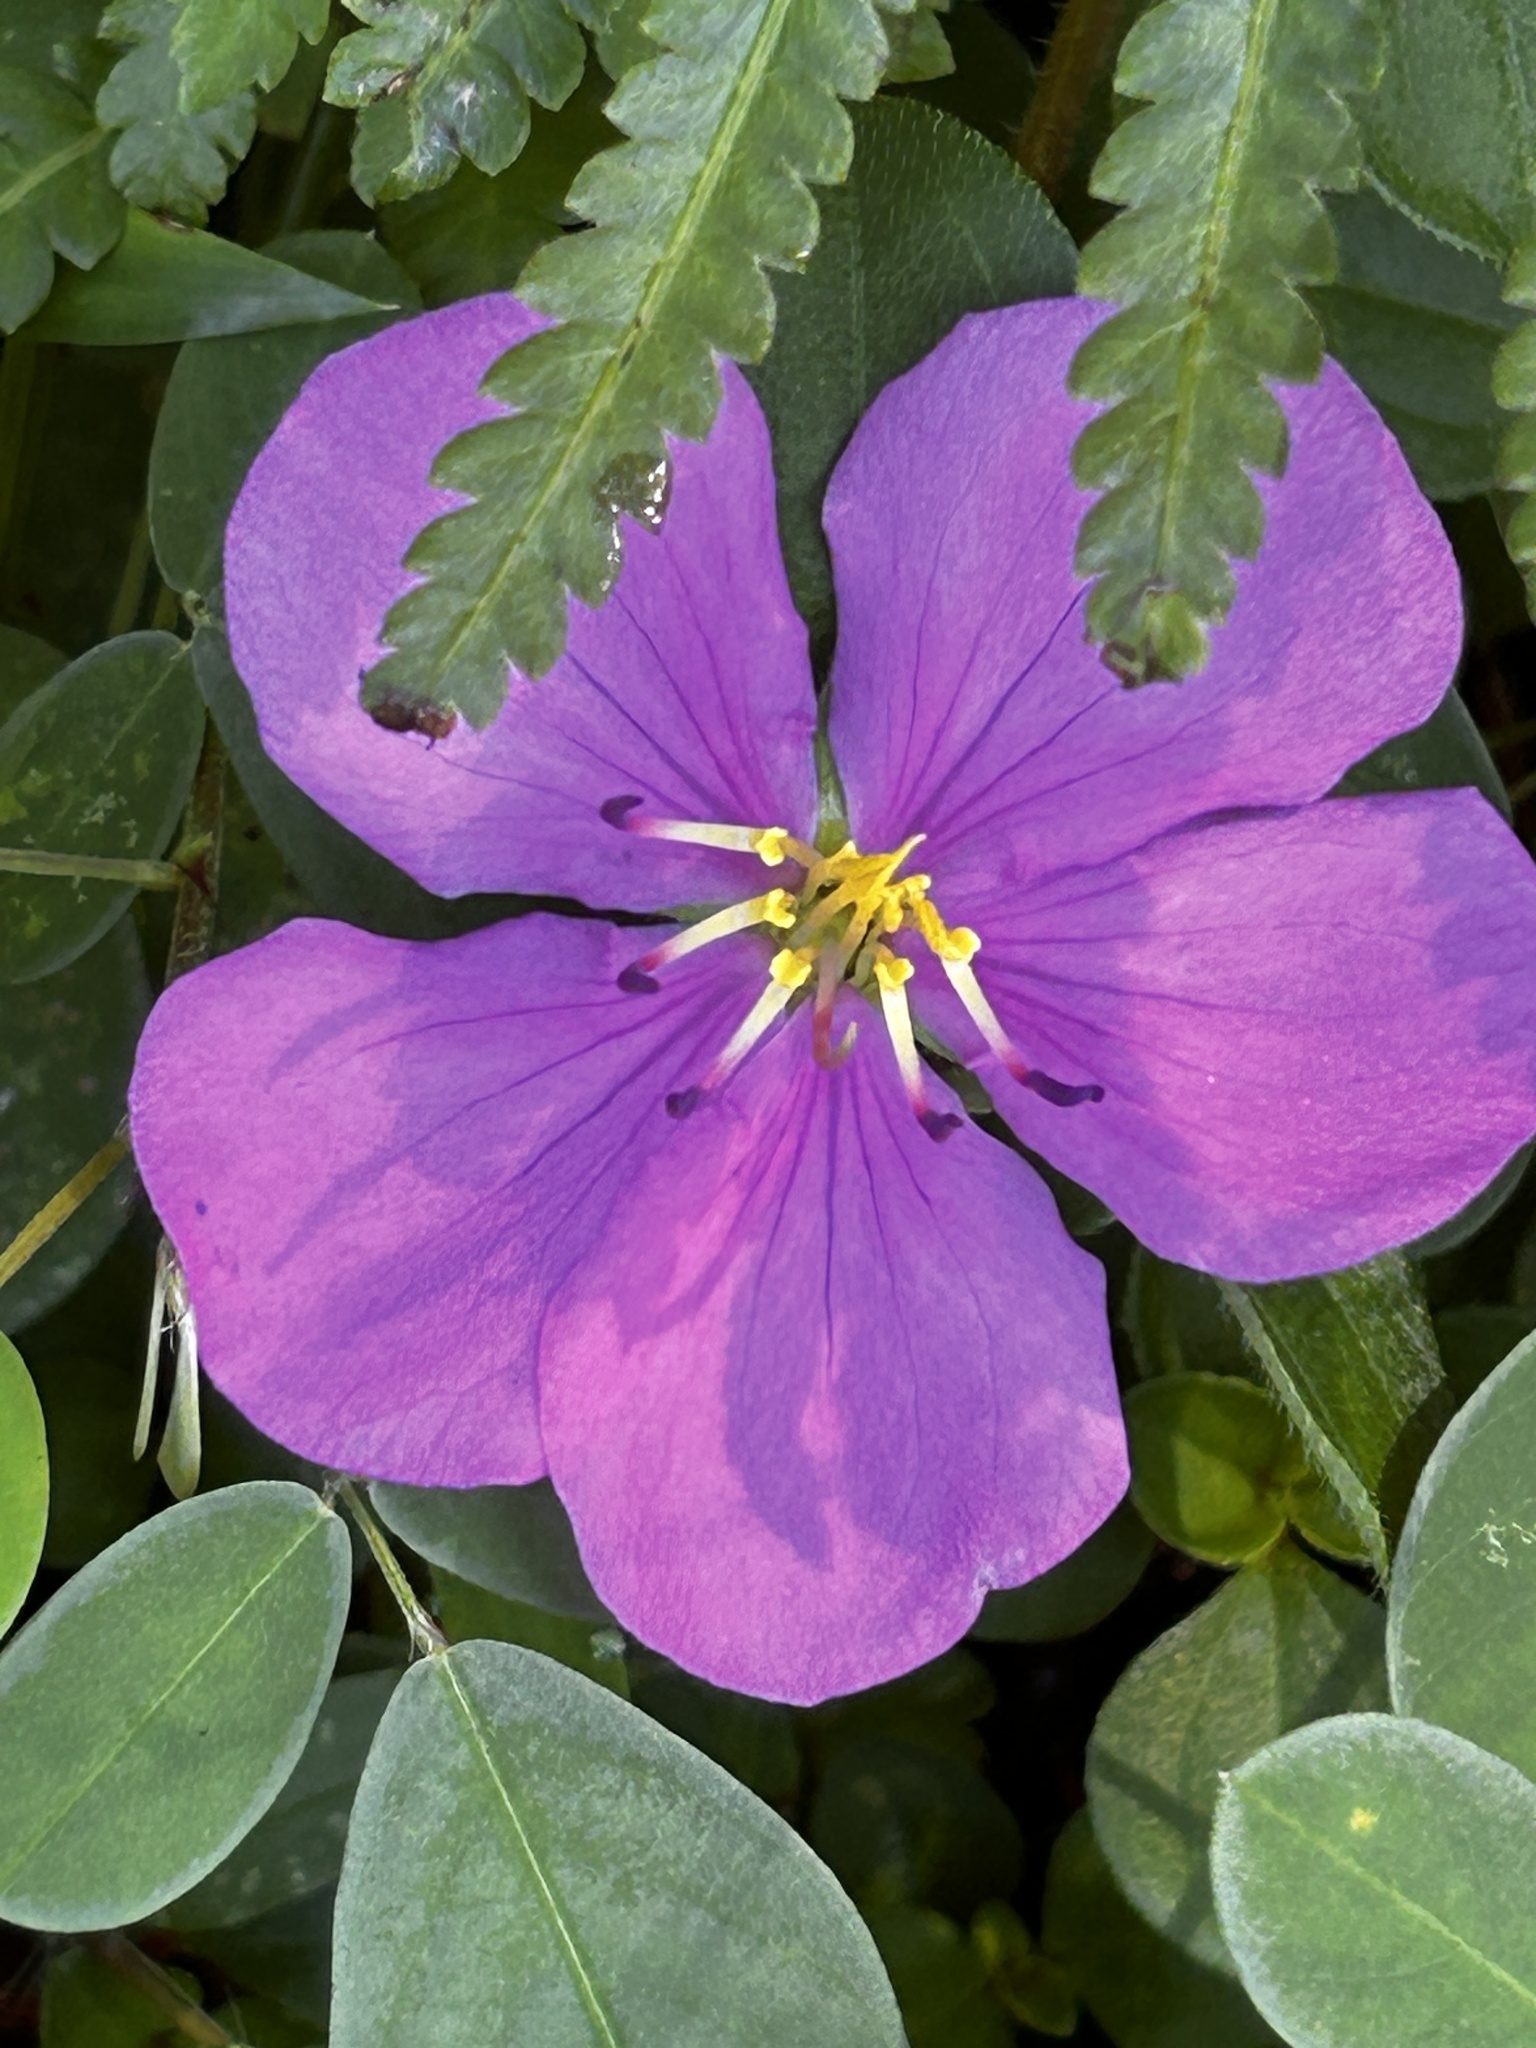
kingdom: Plantae
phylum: Tracheophyta
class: Magnoliopsida
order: Myrtales
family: Melastomataceae
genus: Heterotis
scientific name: Heterotis rotundifolia
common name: Pinklady
